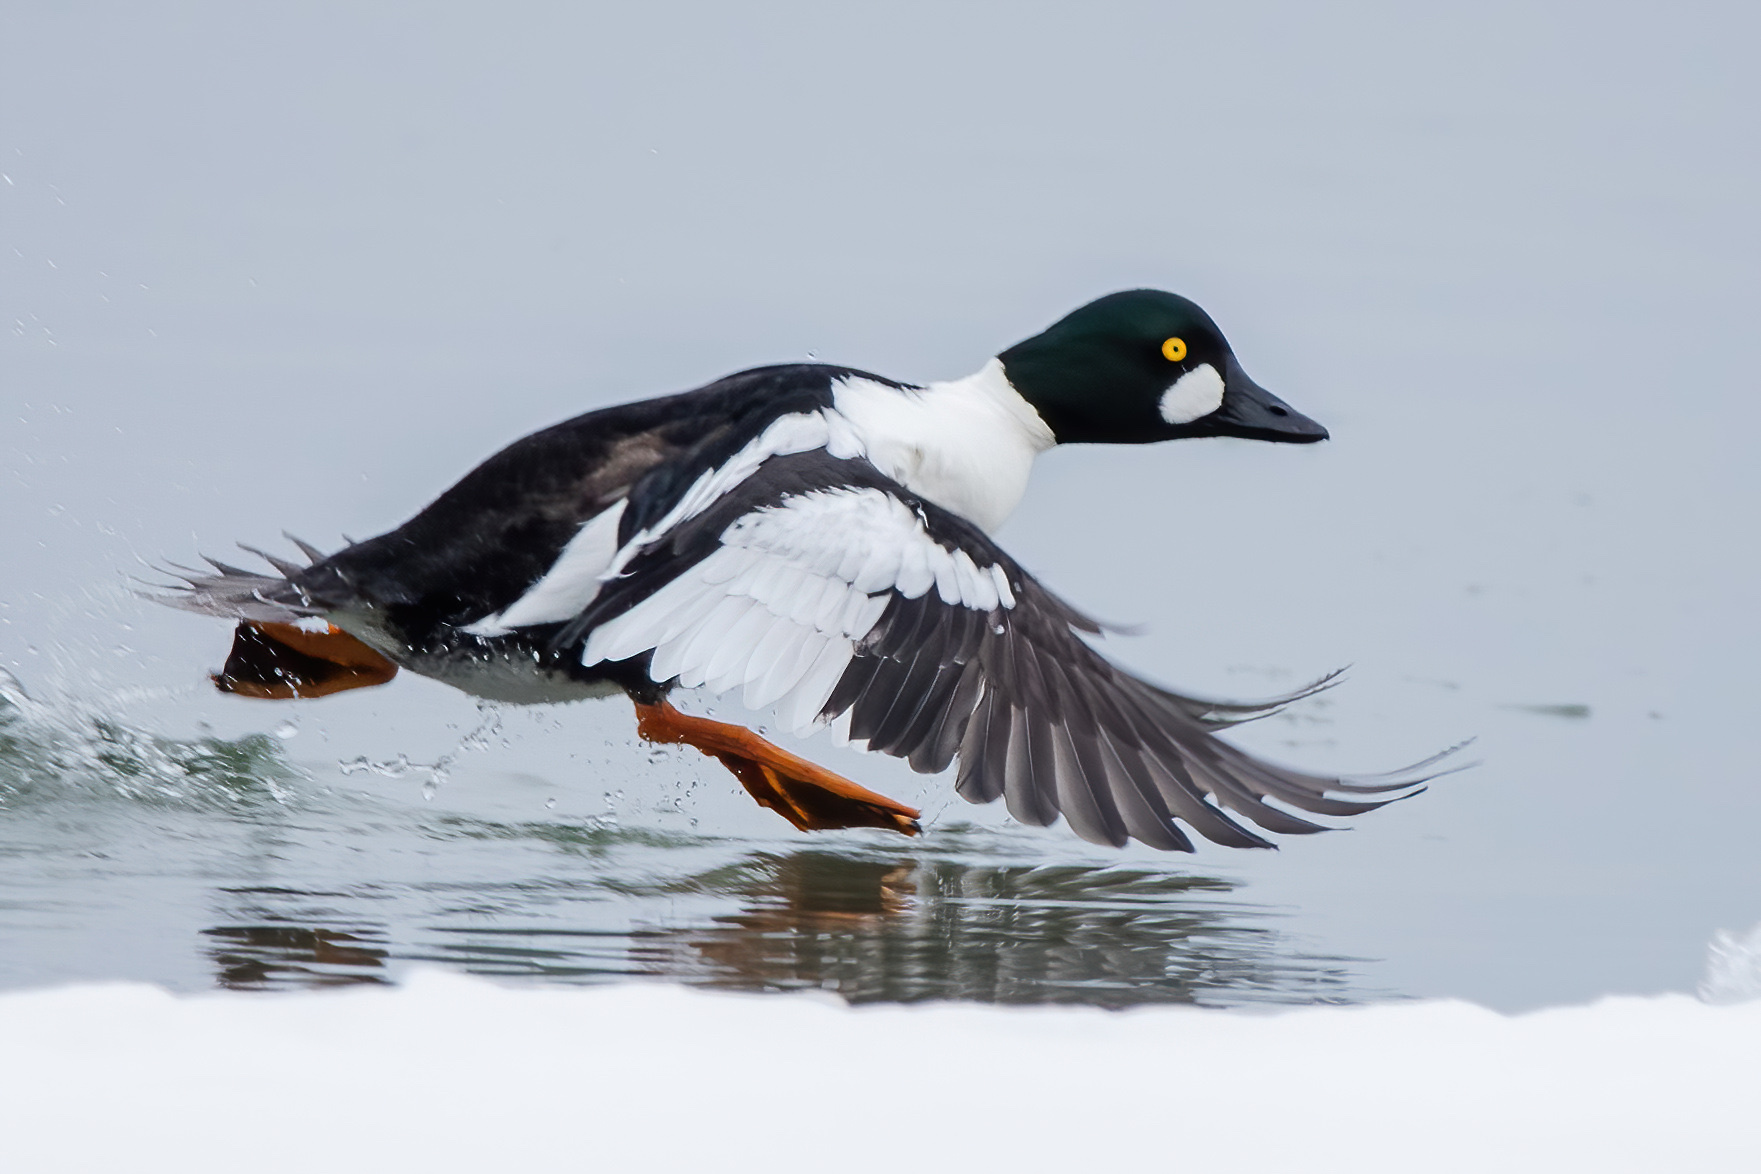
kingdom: Animalia
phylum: Chordata
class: Aves
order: Anseriformes
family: Anatidae
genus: Bucephala
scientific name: Bucephala clangula
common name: Common goldeneye
